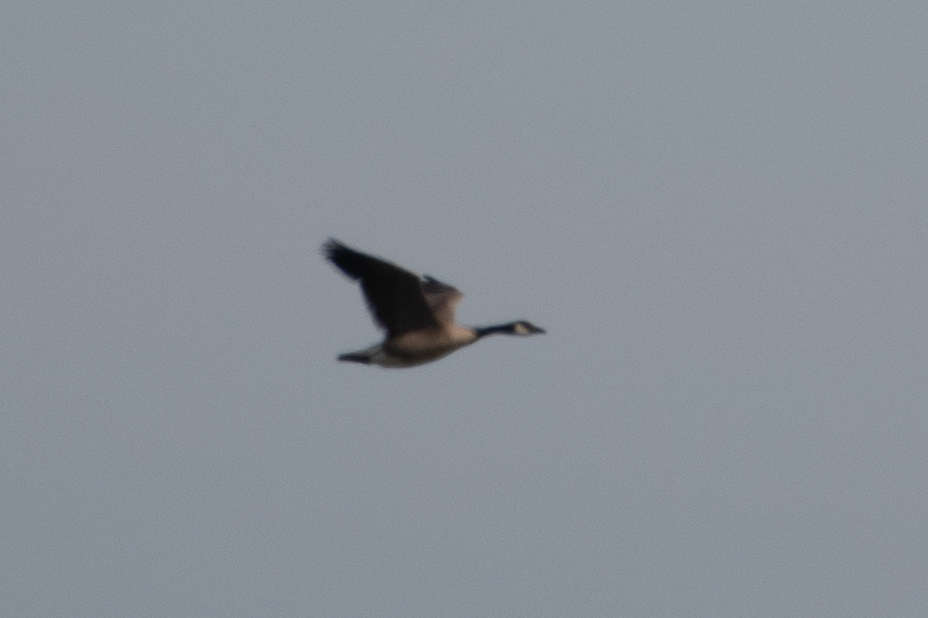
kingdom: Animalia
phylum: Chordata
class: Aves
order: Anseriformes
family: Anatidae
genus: Branta
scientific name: Branta canadensis
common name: Canada goose
